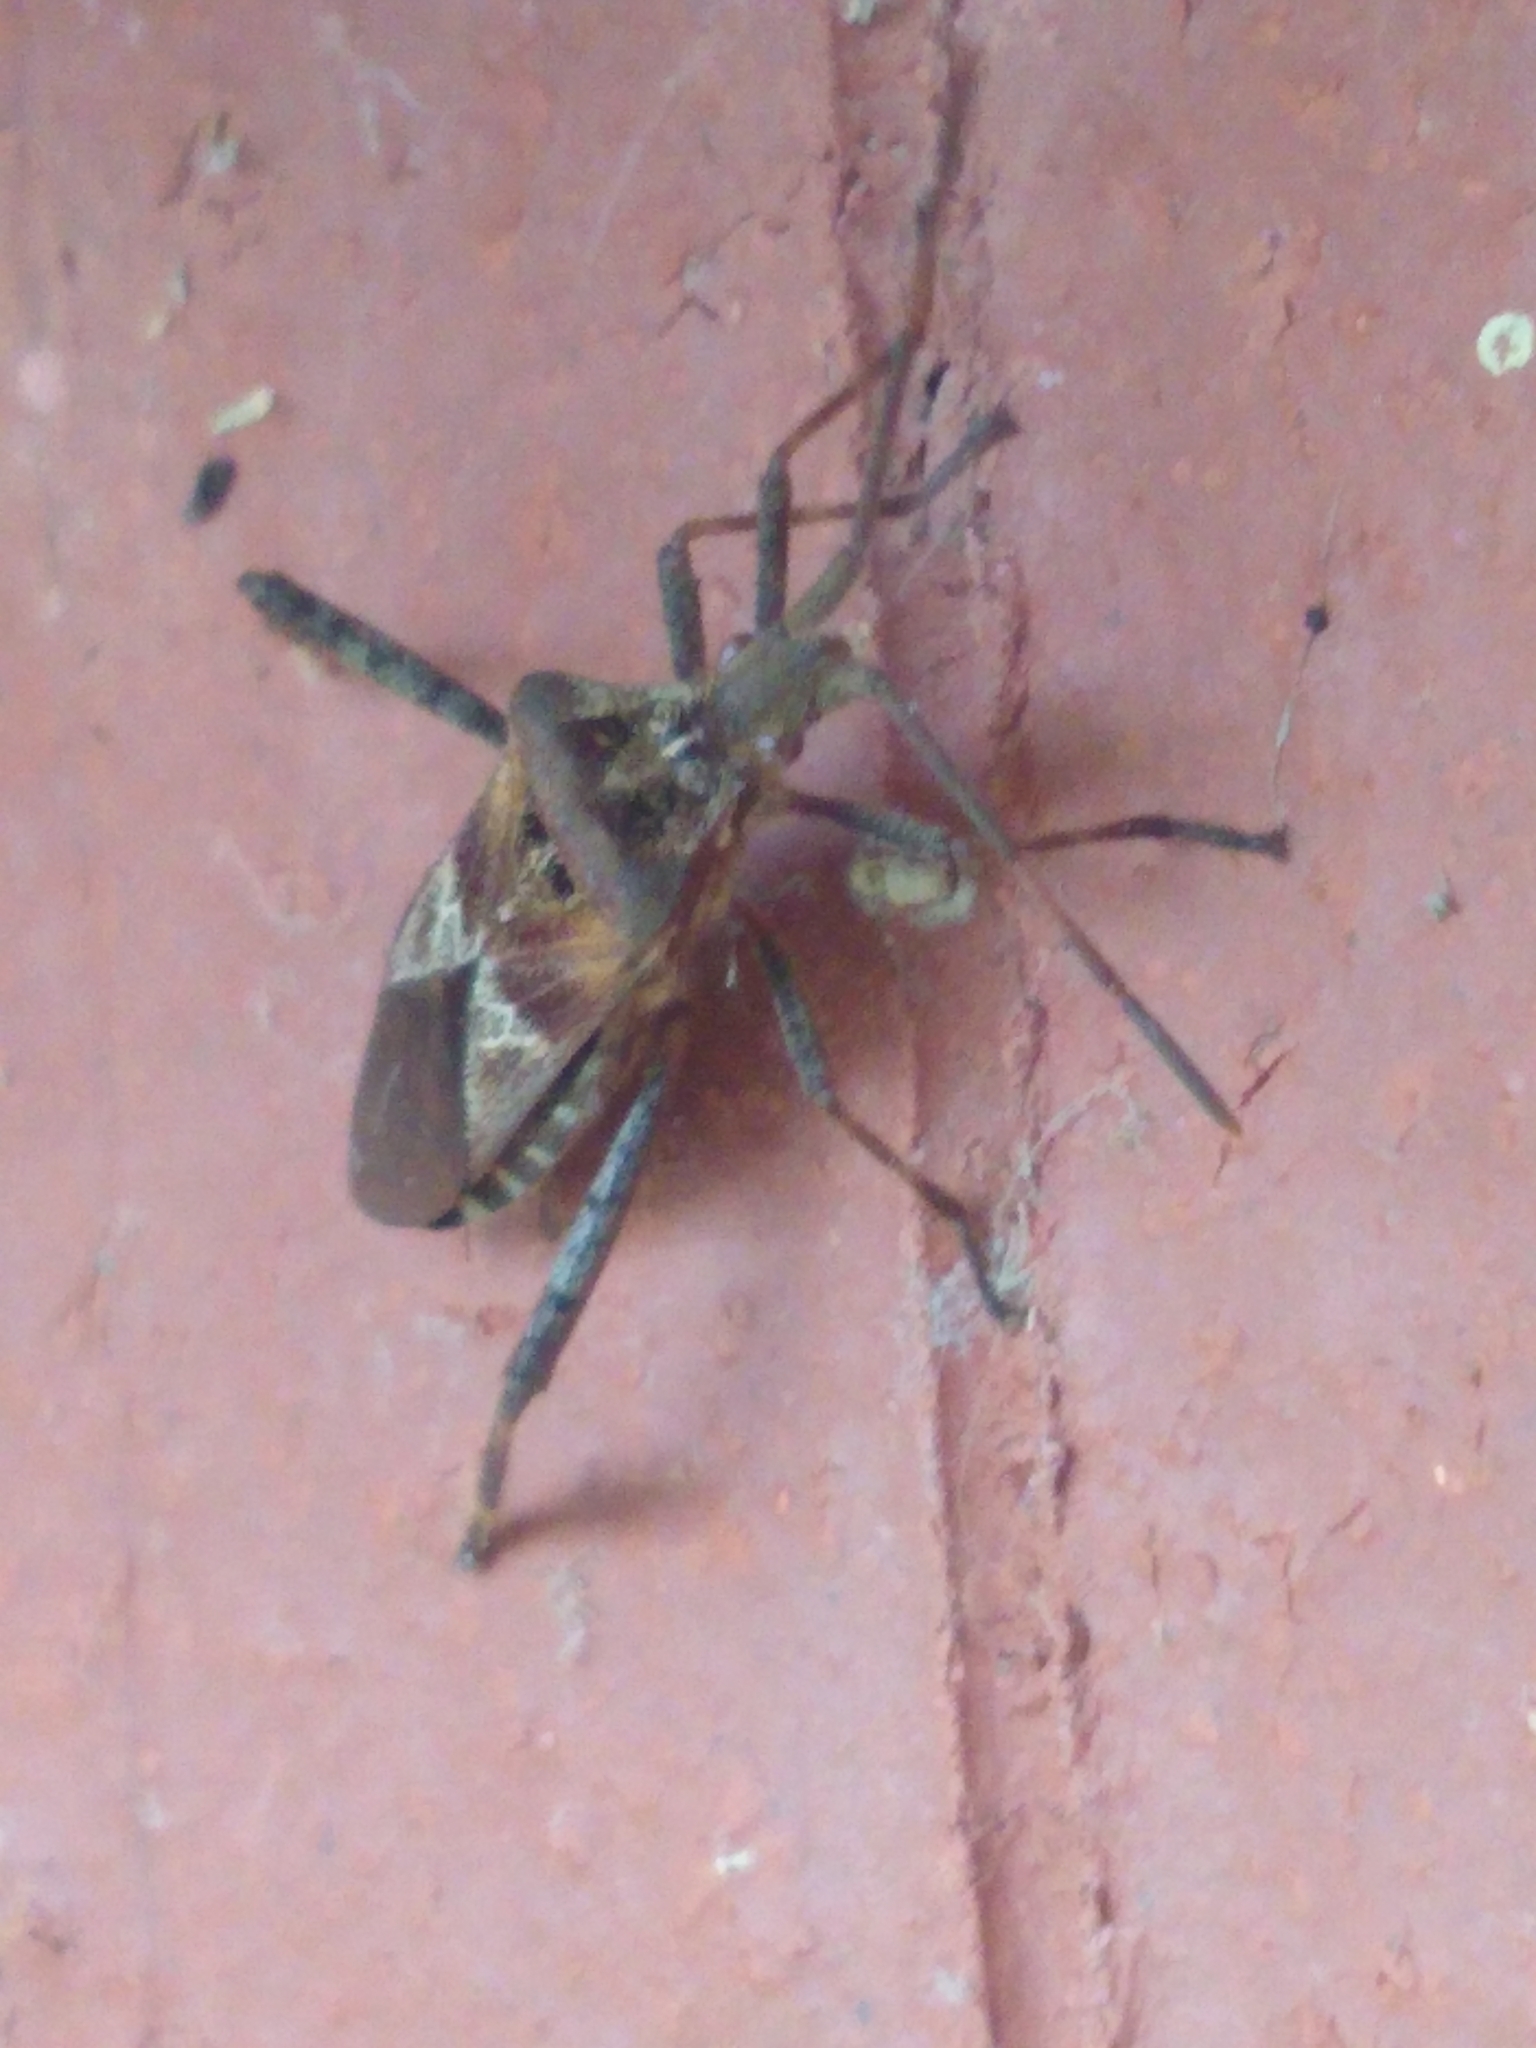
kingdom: Animalia
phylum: Arthropoda
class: Insecta
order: Hemiptera
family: Coreidae
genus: Leptoglossus
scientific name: Leptoglossus occidentalis
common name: Western conifer-seed bug
